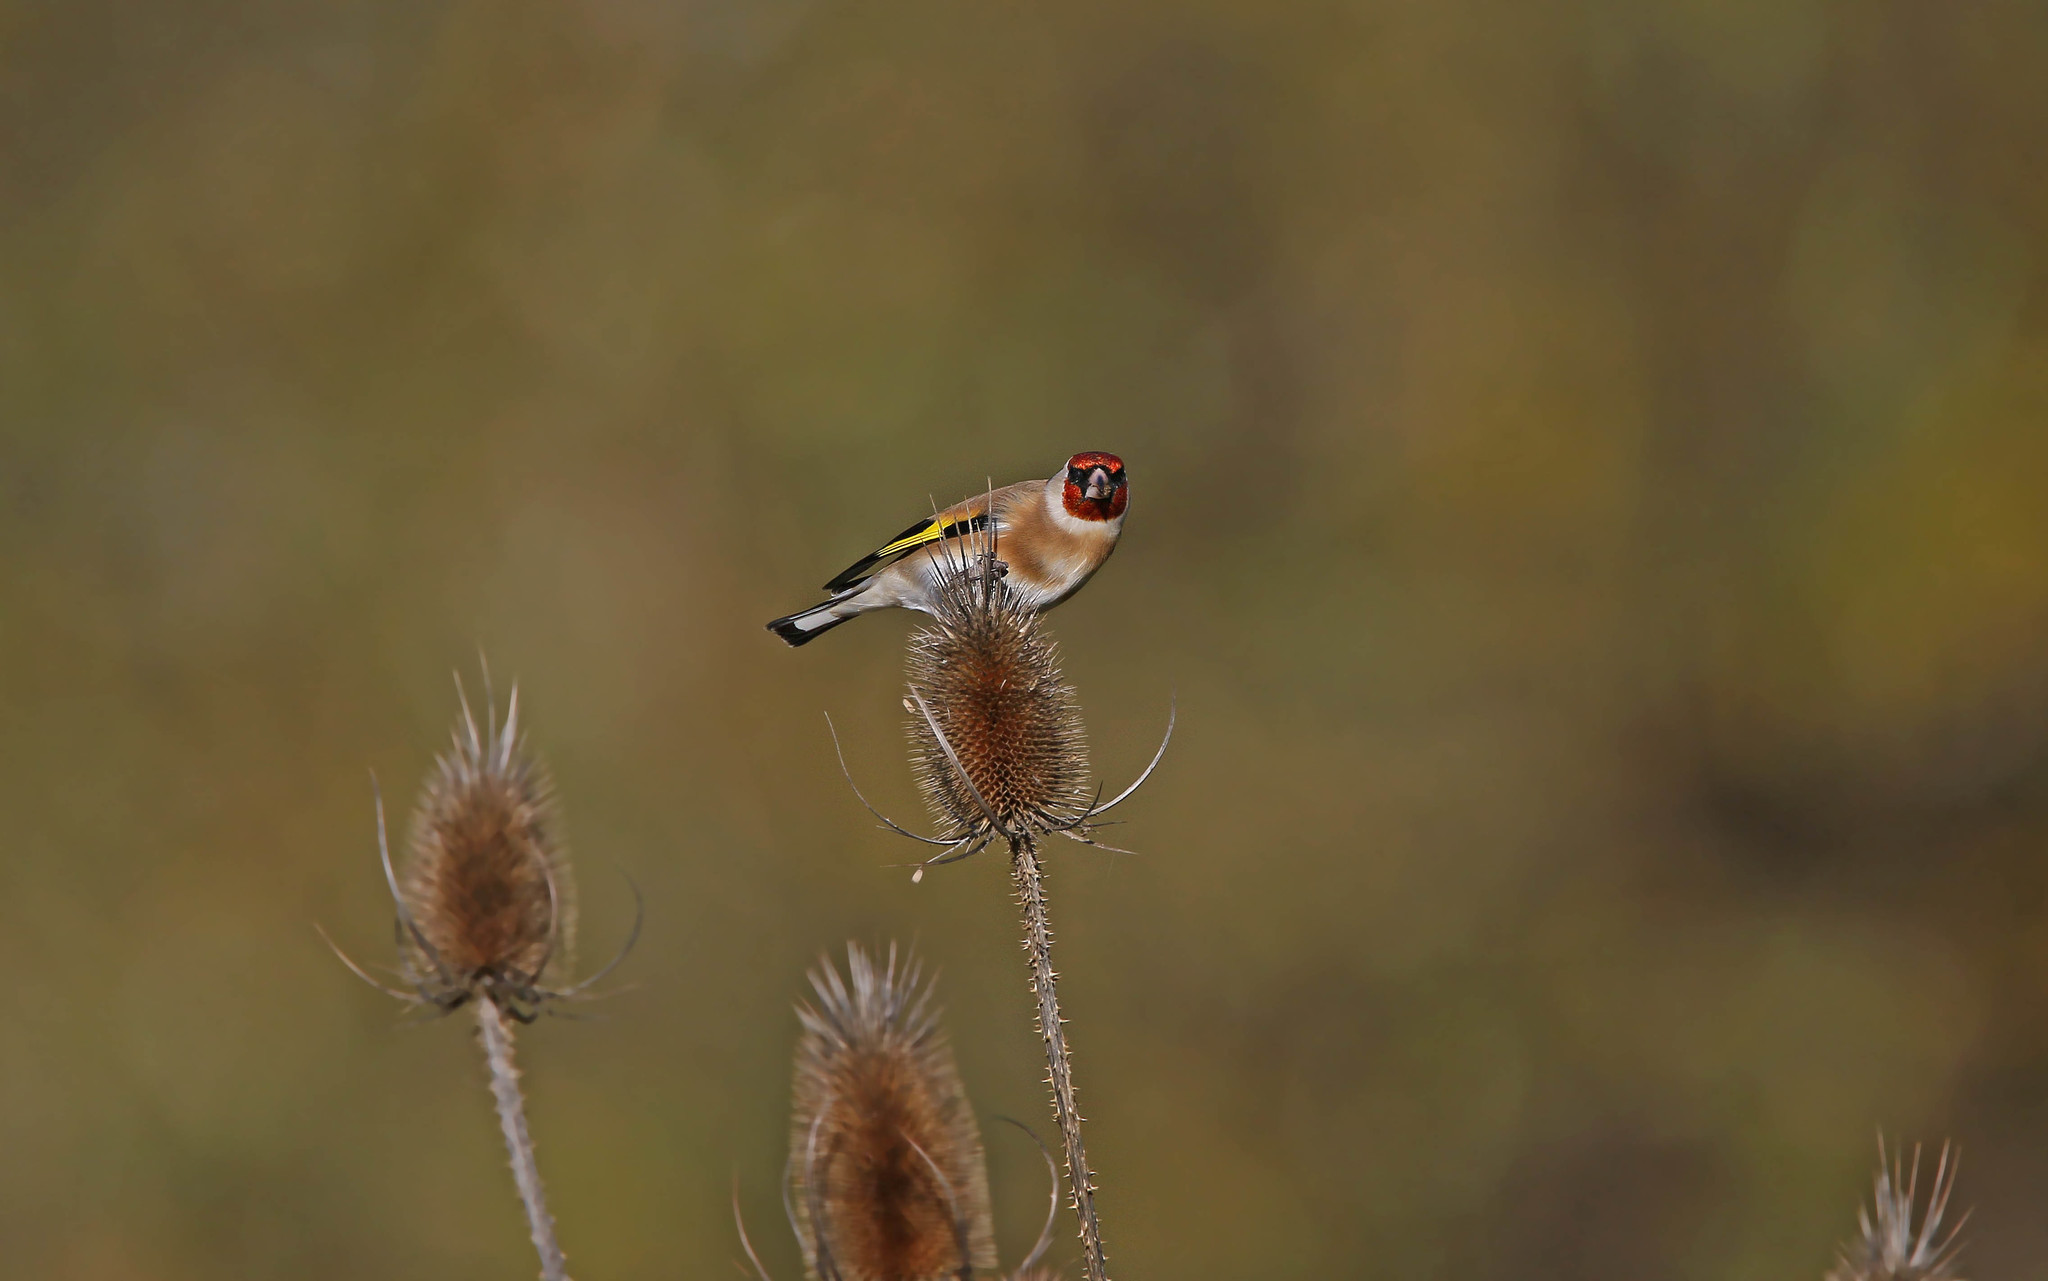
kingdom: Animalia
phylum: Chordata
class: Aves
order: Passeriformes
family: Fringillidae
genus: Carduelis
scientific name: Carduelis carduelis
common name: European goldfinch
